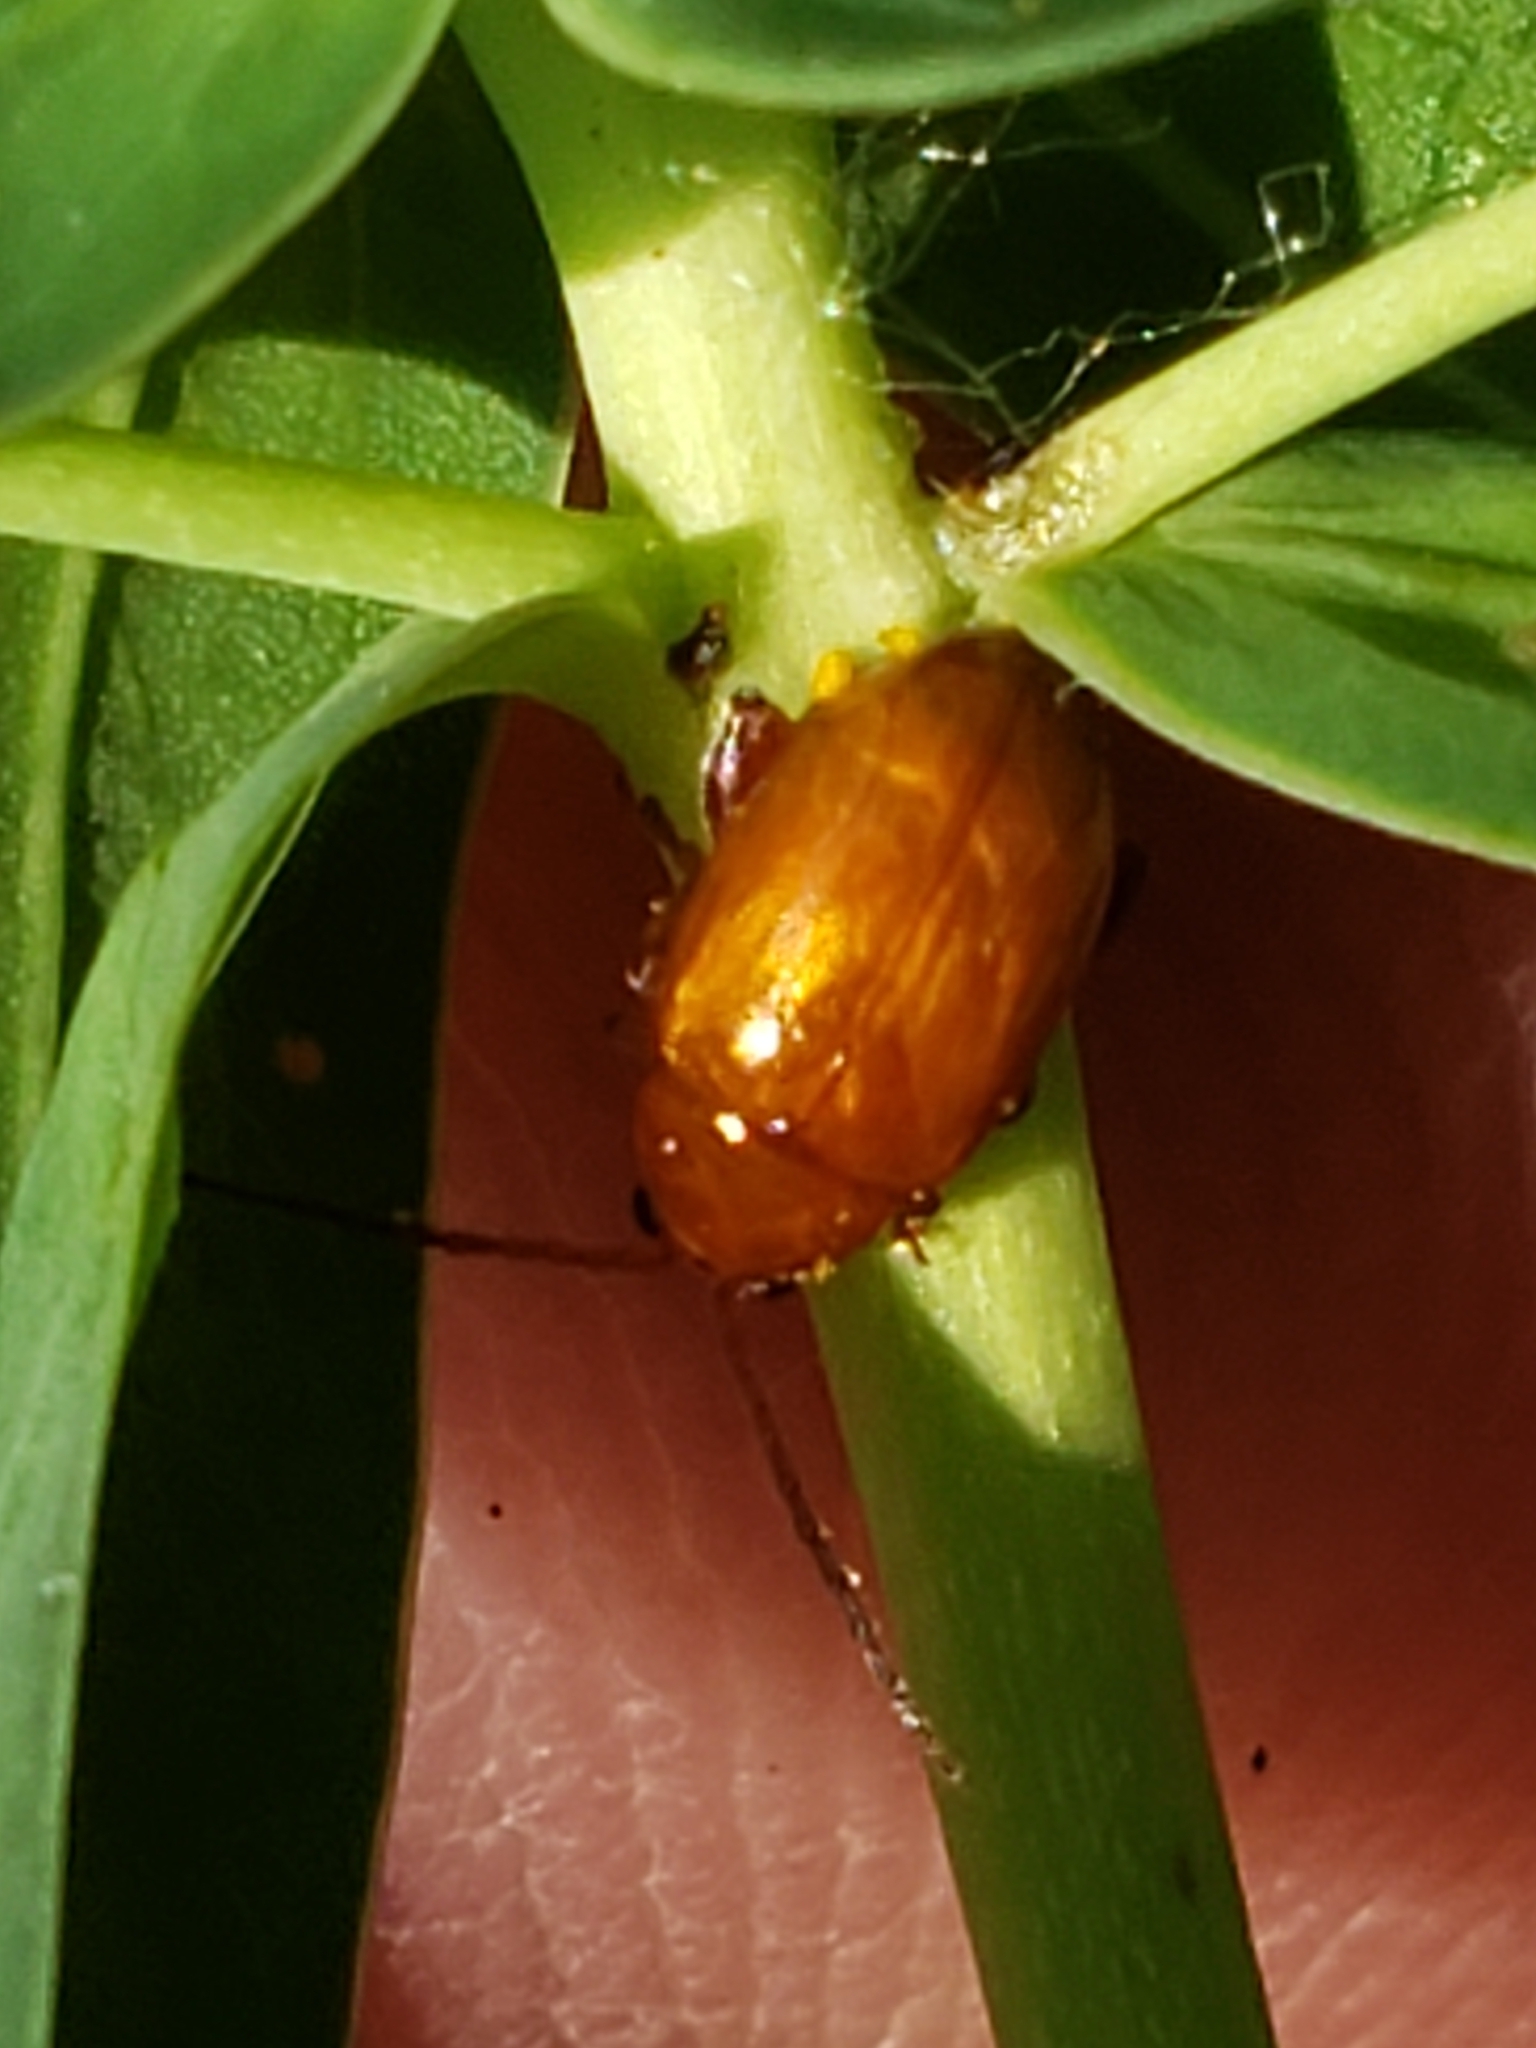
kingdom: Animalia
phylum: Arthropoda
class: Insecta
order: Coleoptera
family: Chrysomelidae
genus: Aphthona
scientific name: Aphthona cyparissiae
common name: Brown dot leafy spurge flea beetle
